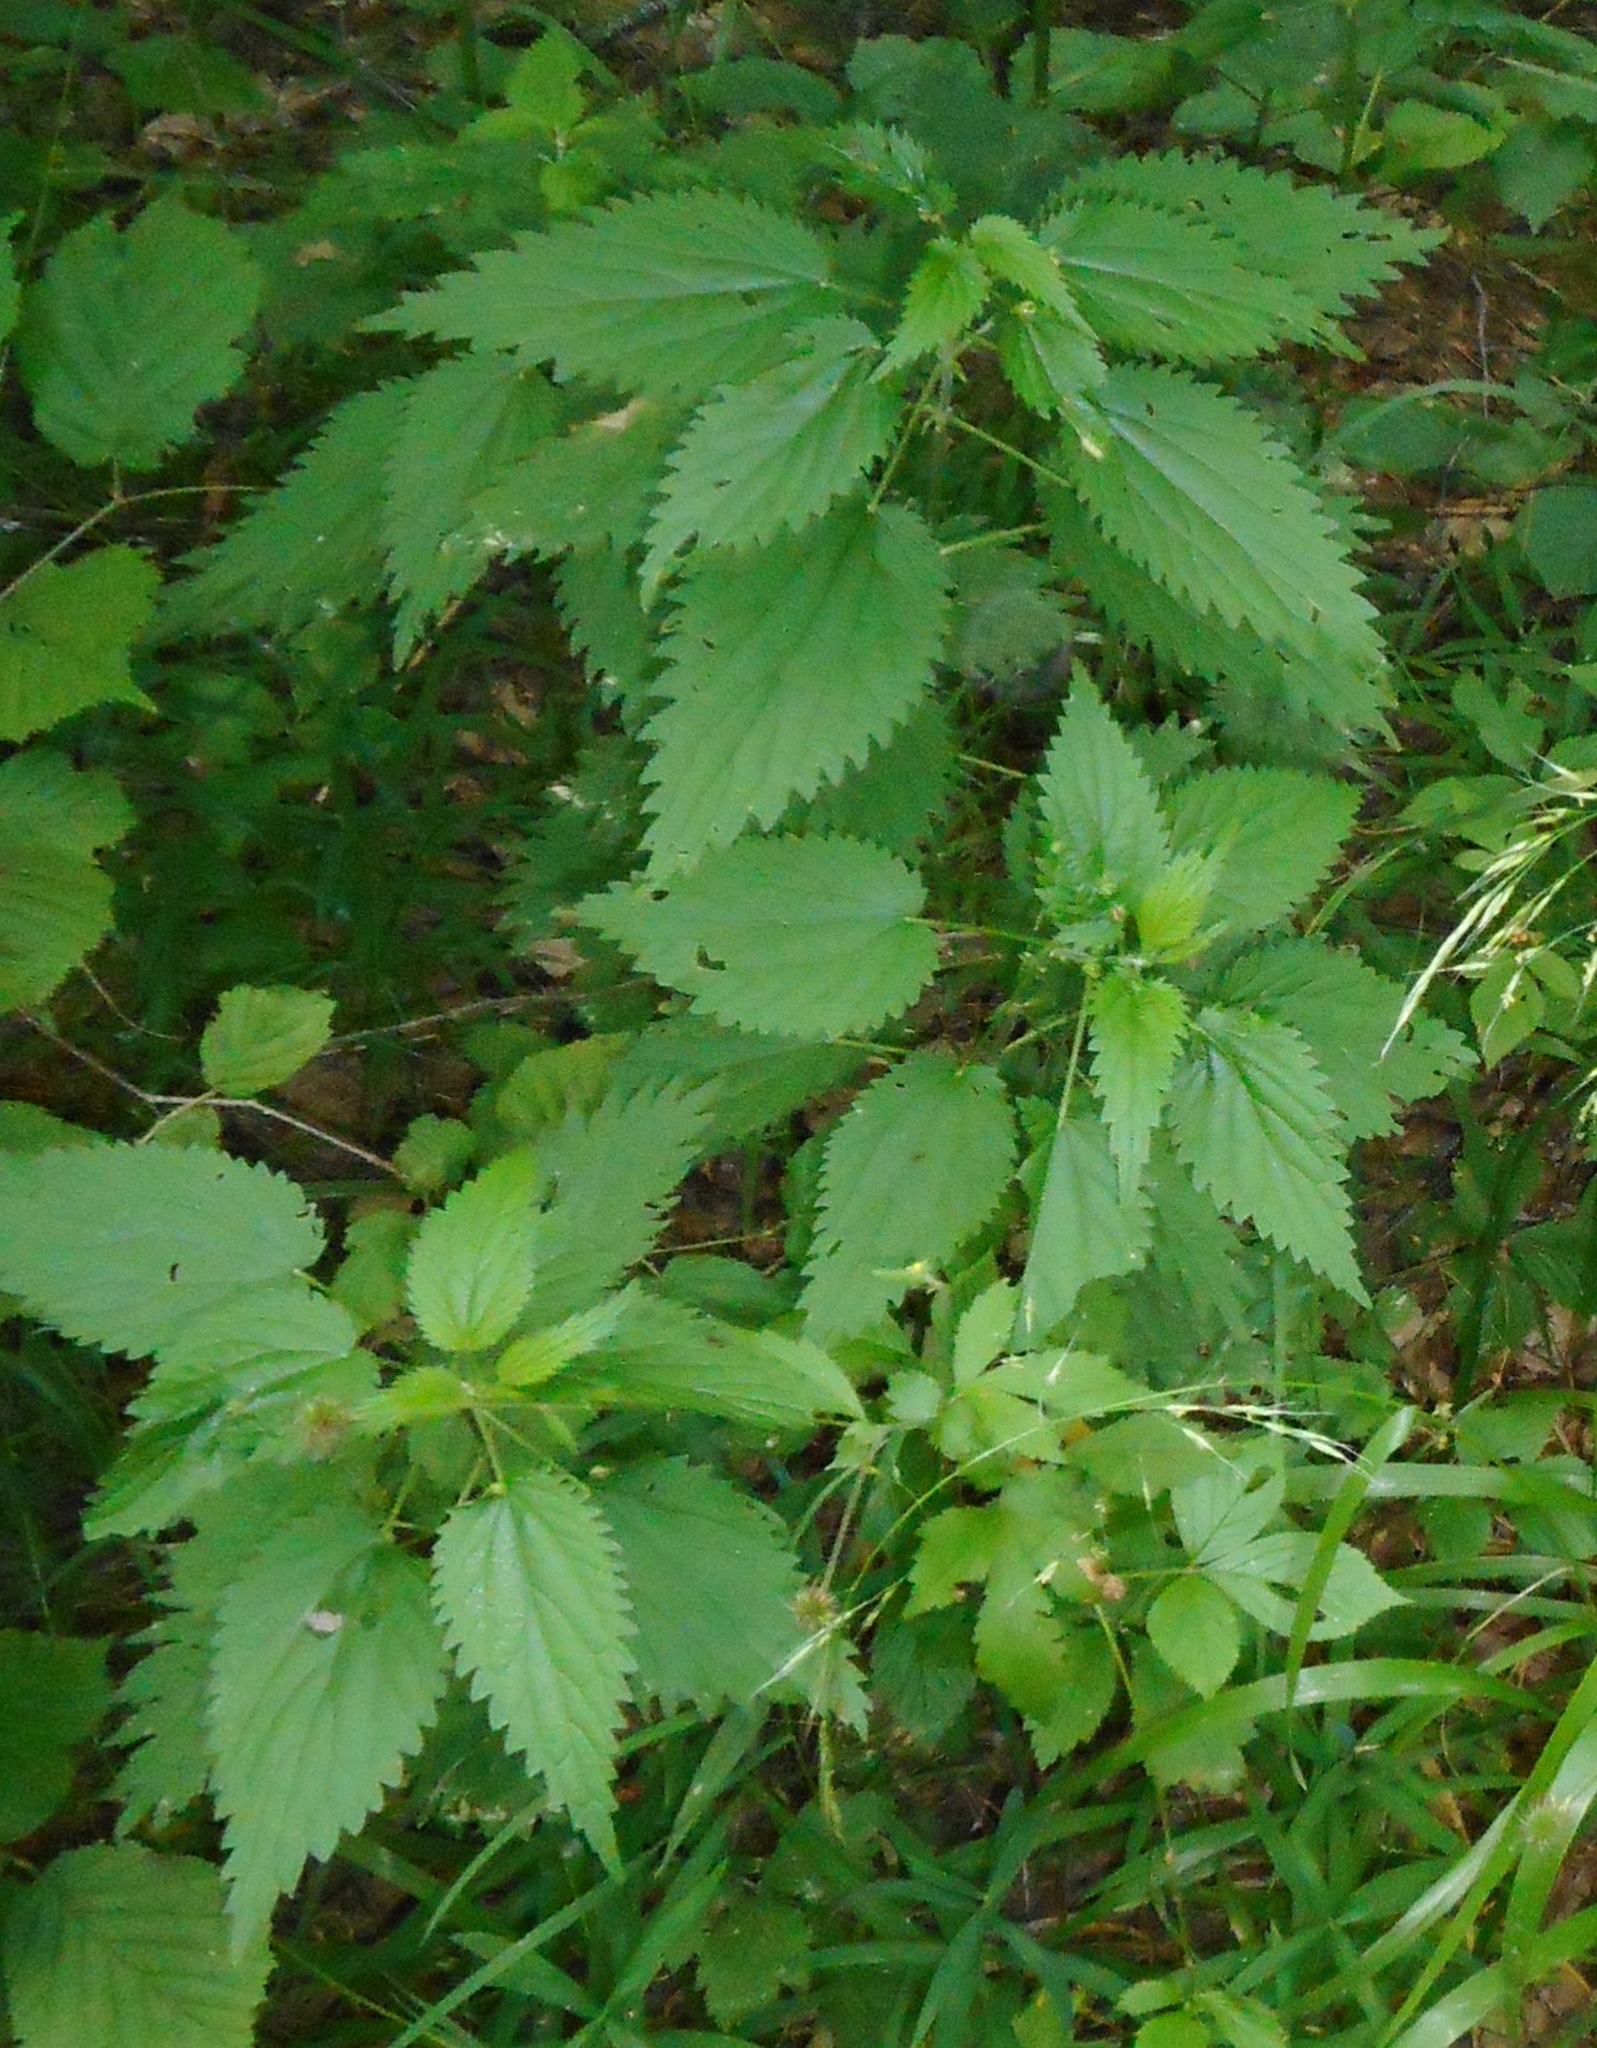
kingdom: Plantae
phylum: Tracheophyta
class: Magnoliopsida
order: Rosales
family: Urticaceae
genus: Urtica
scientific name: Urtica dioica
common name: Common nettle
